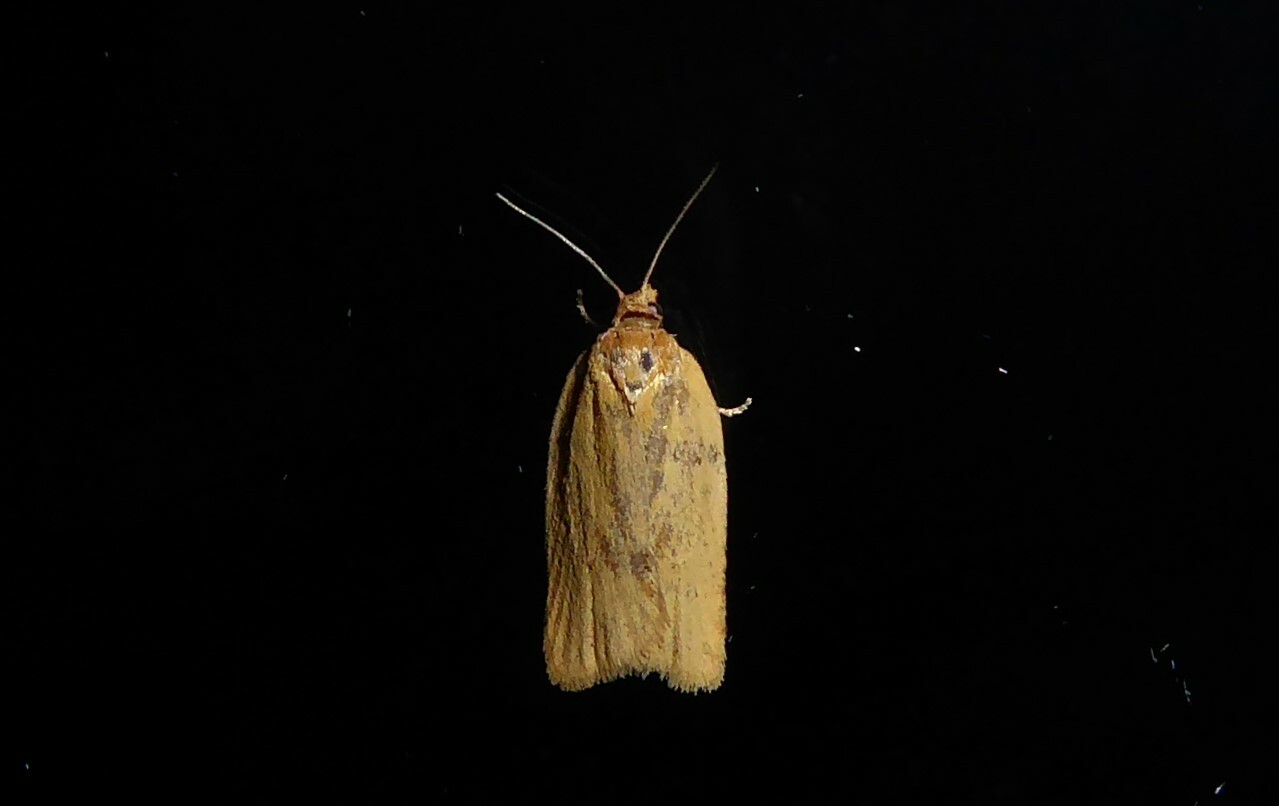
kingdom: Animalia
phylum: Arthropoda
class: Insecta
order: Lepidoptera
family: Tortricidae
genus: Clepsis
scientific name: Clepsis
